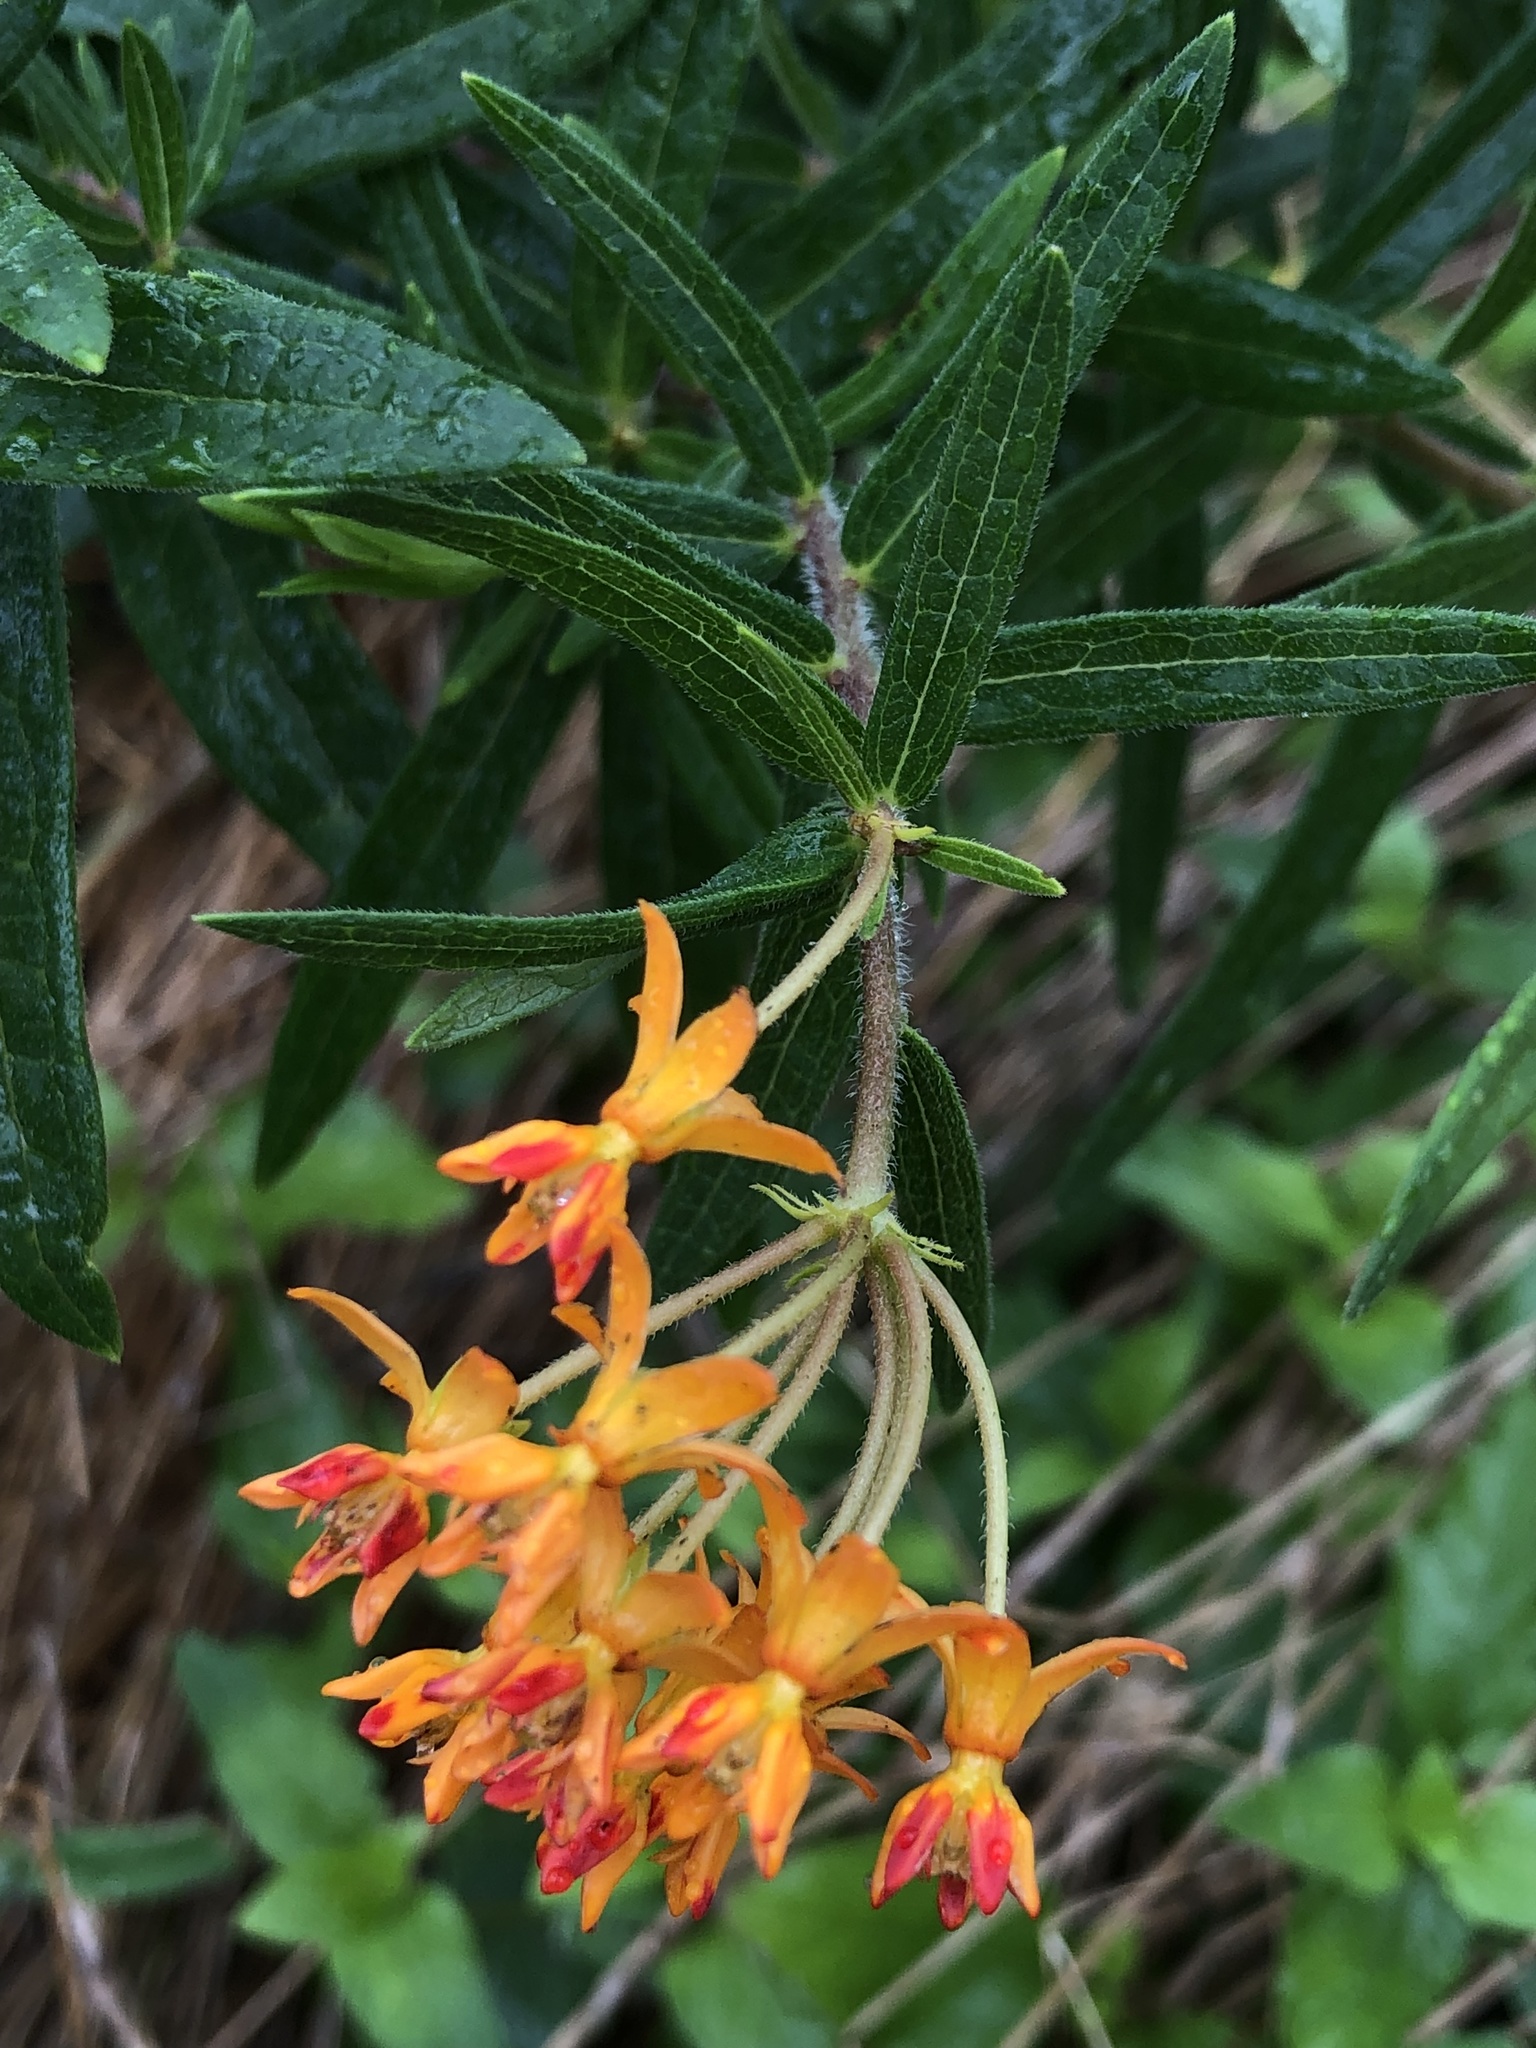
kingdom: Plantae
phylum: Tracheophyta
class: Magnoliopsida
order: Gentianales
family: Apocynaceae
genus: Asclepias
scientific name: Asclepias tuberosa
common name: Butterfly milkweed
